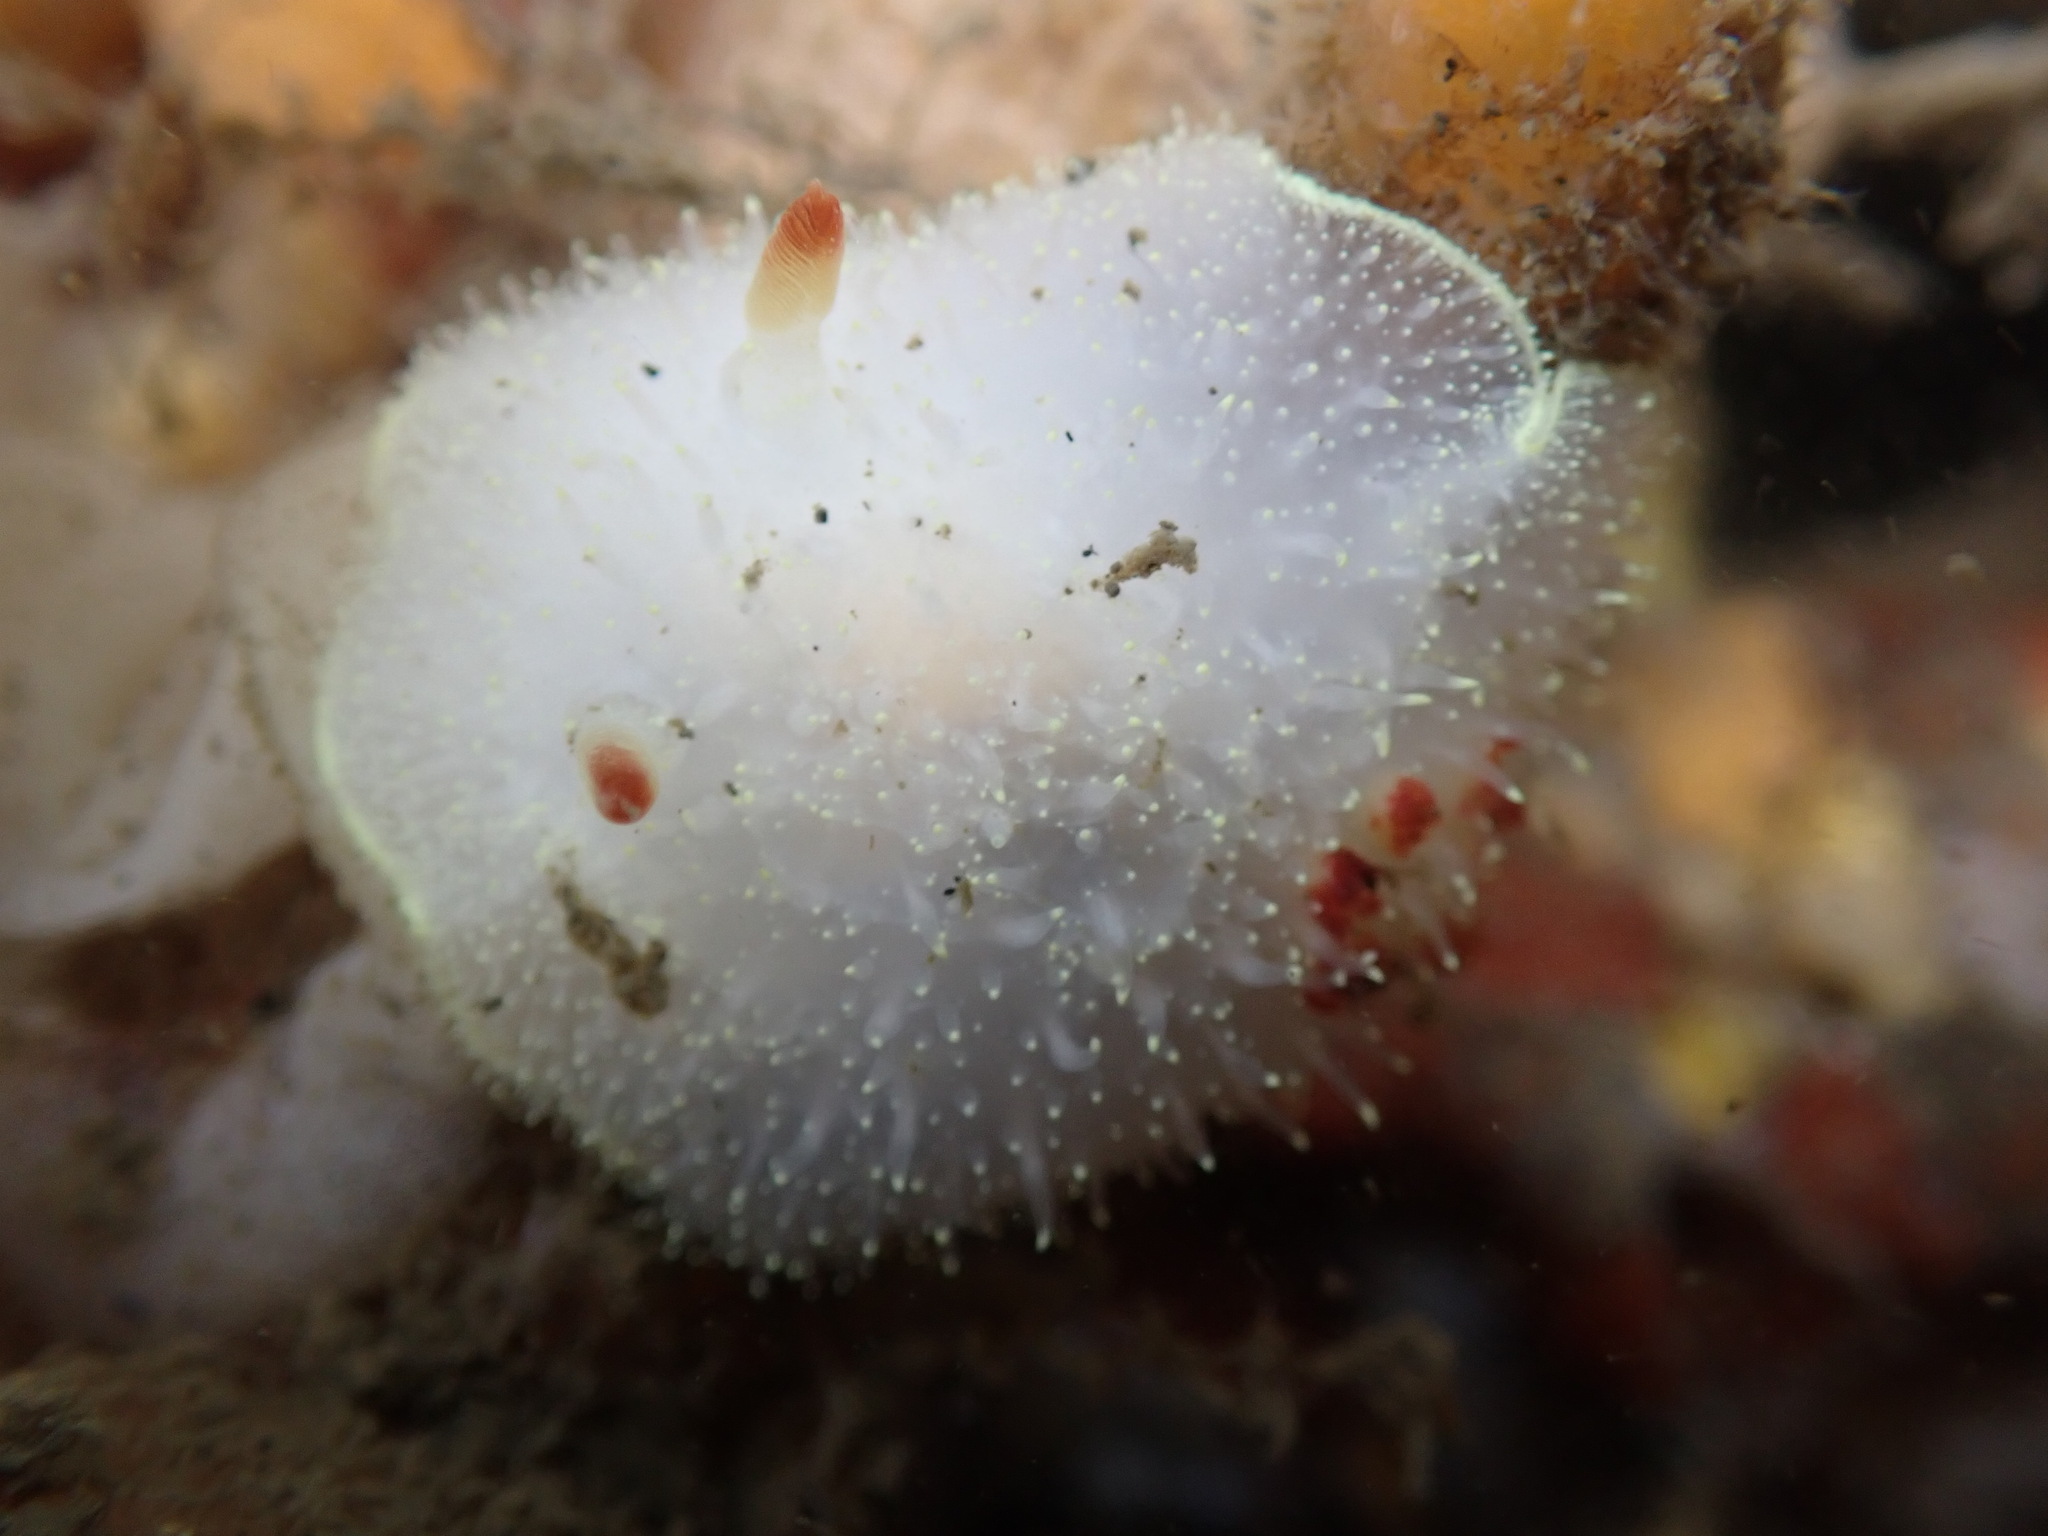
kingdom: Animalia
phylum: Mollusca
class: Gastropoda
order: Nudibranchia
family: Onchidorididae
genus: Acanthodoris
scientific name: Acanthodoris nanaimoensis
